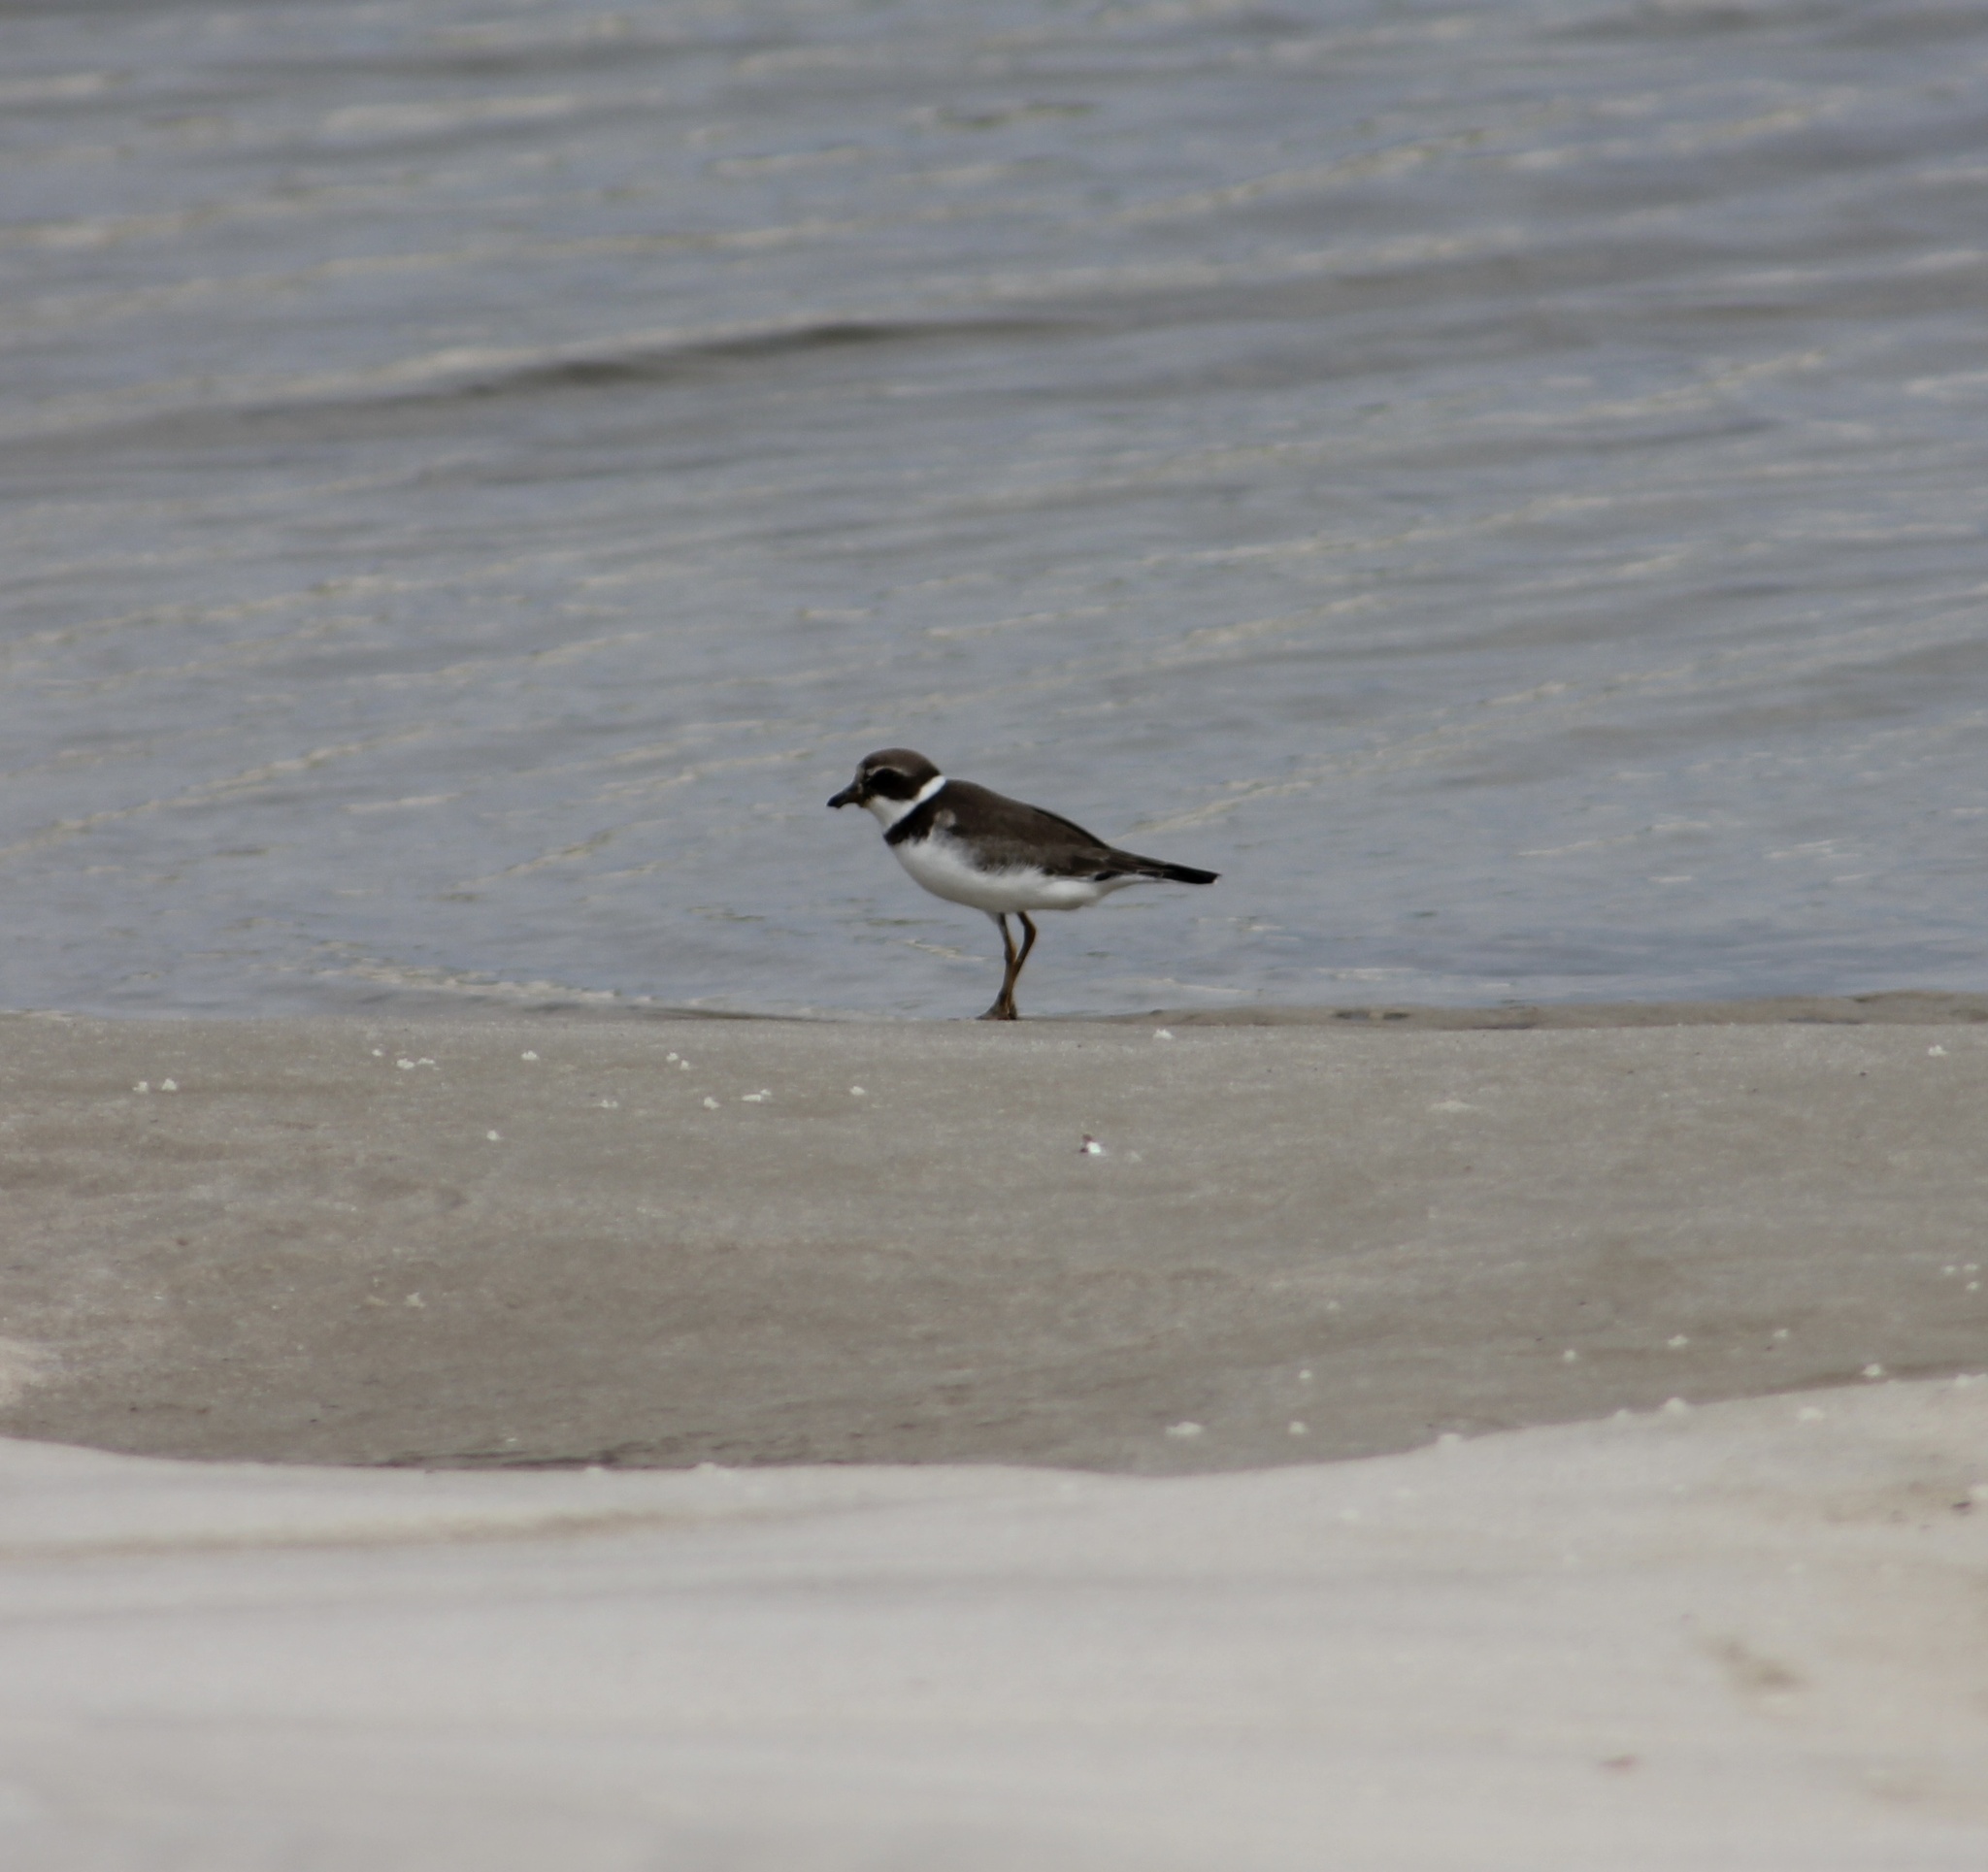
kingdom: Animalia
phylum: Chordata
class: Aves
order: Charadriiformes
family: Charadriidae
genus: Charadrius
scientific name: Charadrius semipalmatus
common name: Semipalmated plover
